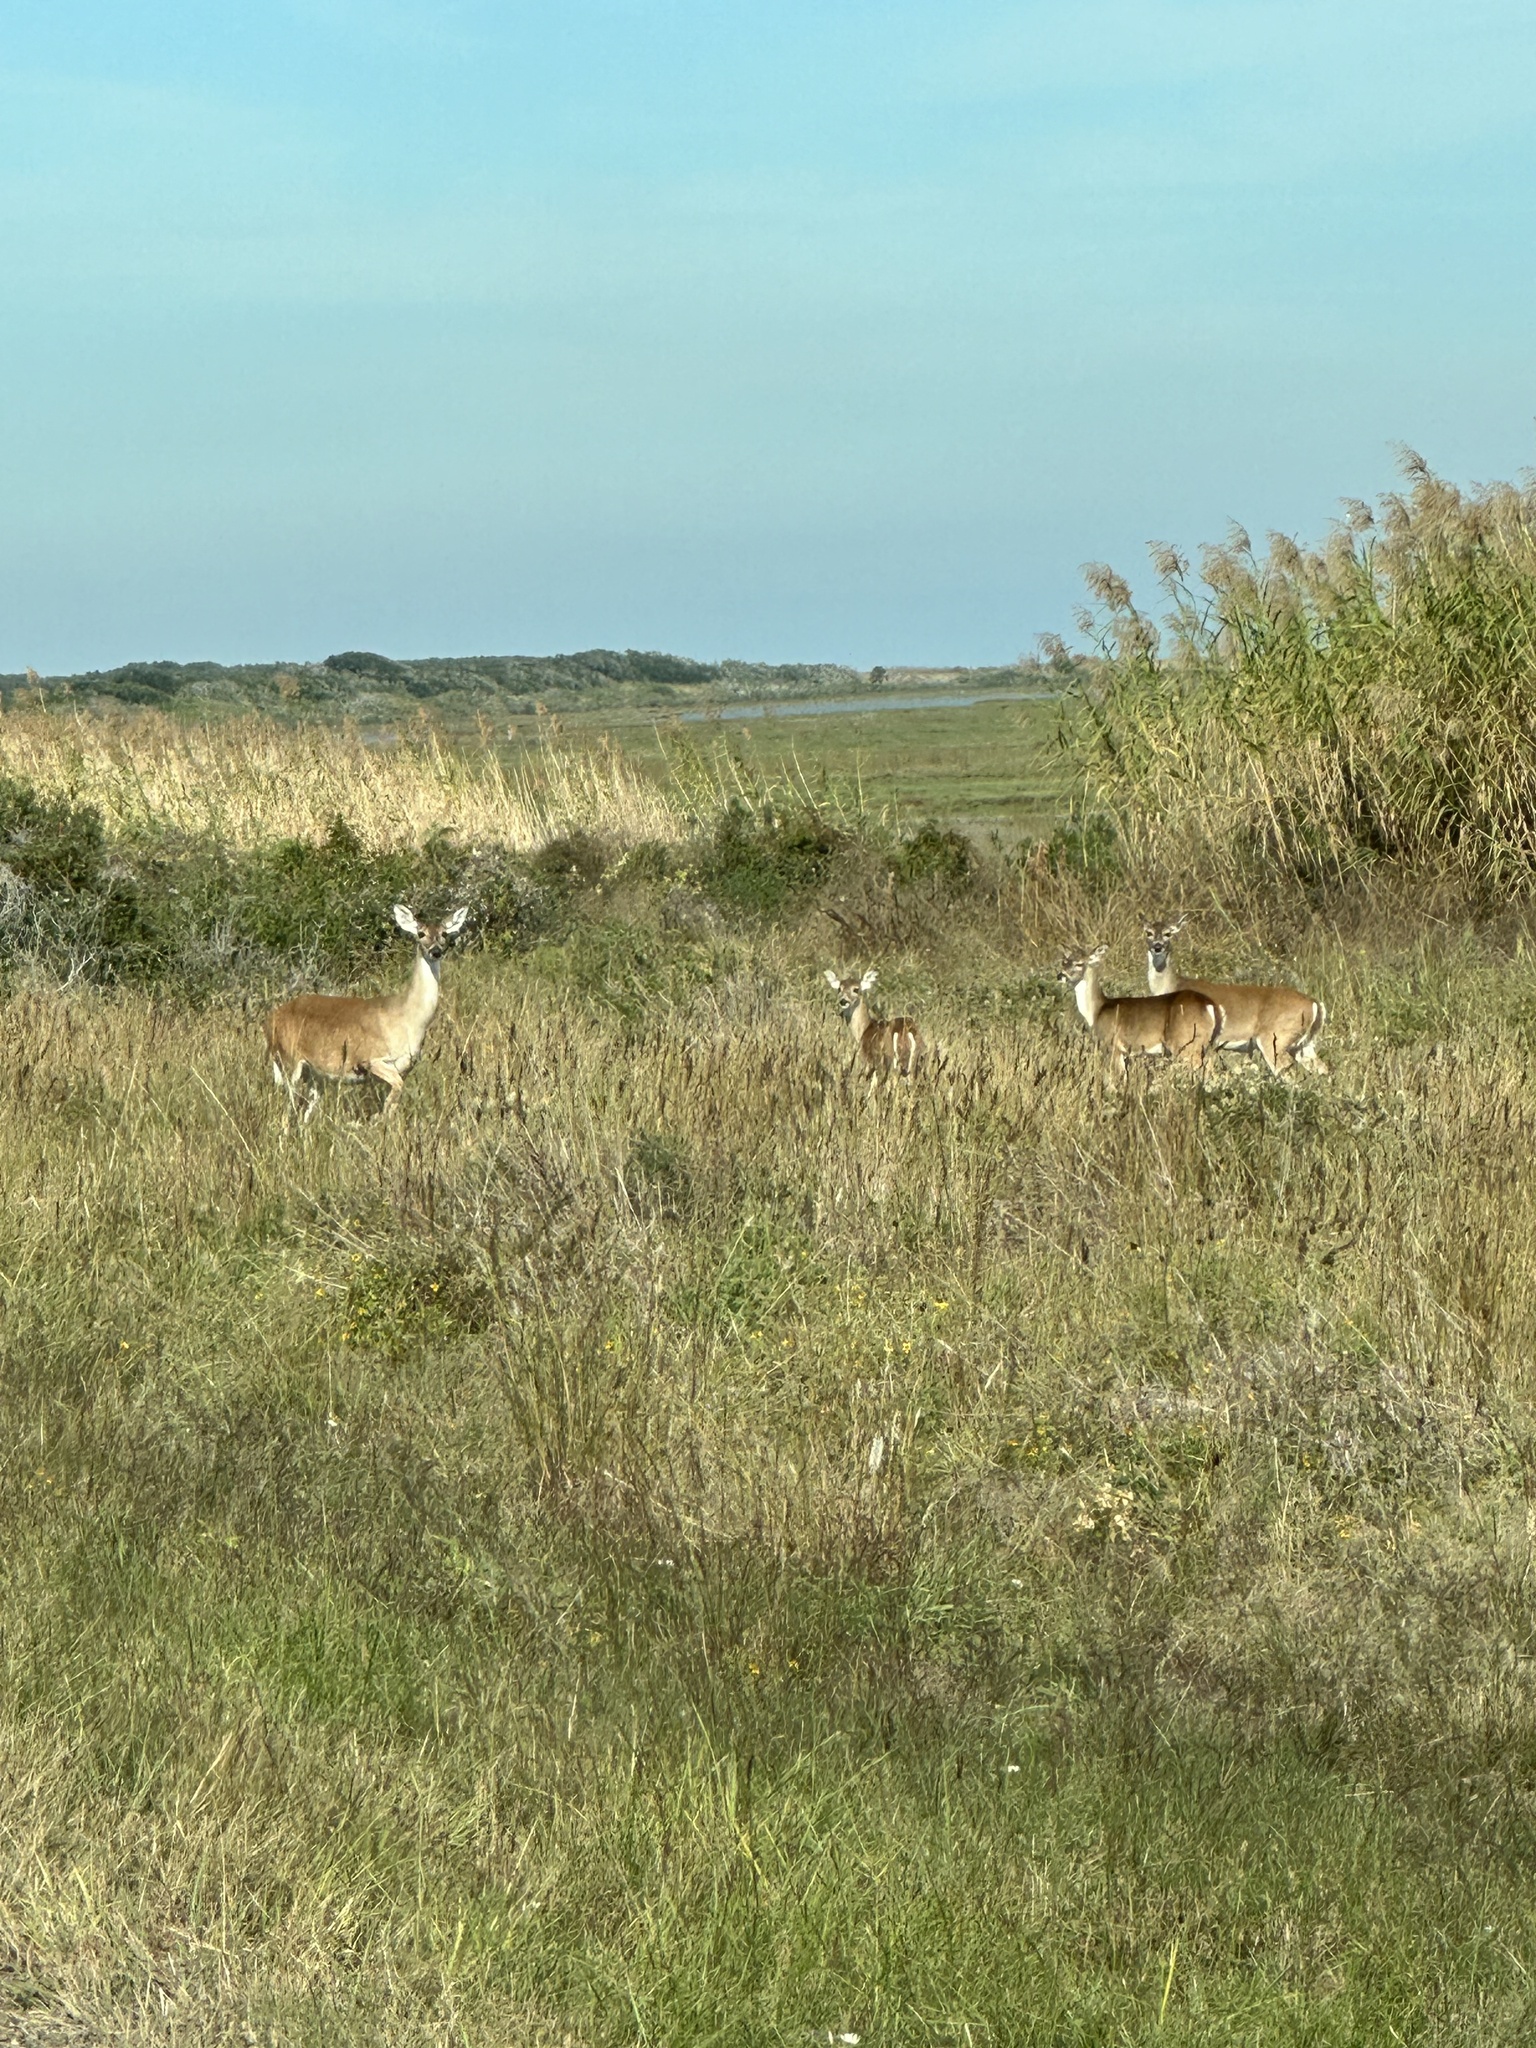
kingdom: Animalia
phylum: Chordata
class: Mammalia
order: Artiodactyla
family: Cervidae
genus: Odocoileus
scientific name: Odocoileus virginianus
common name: White-tailed deer
